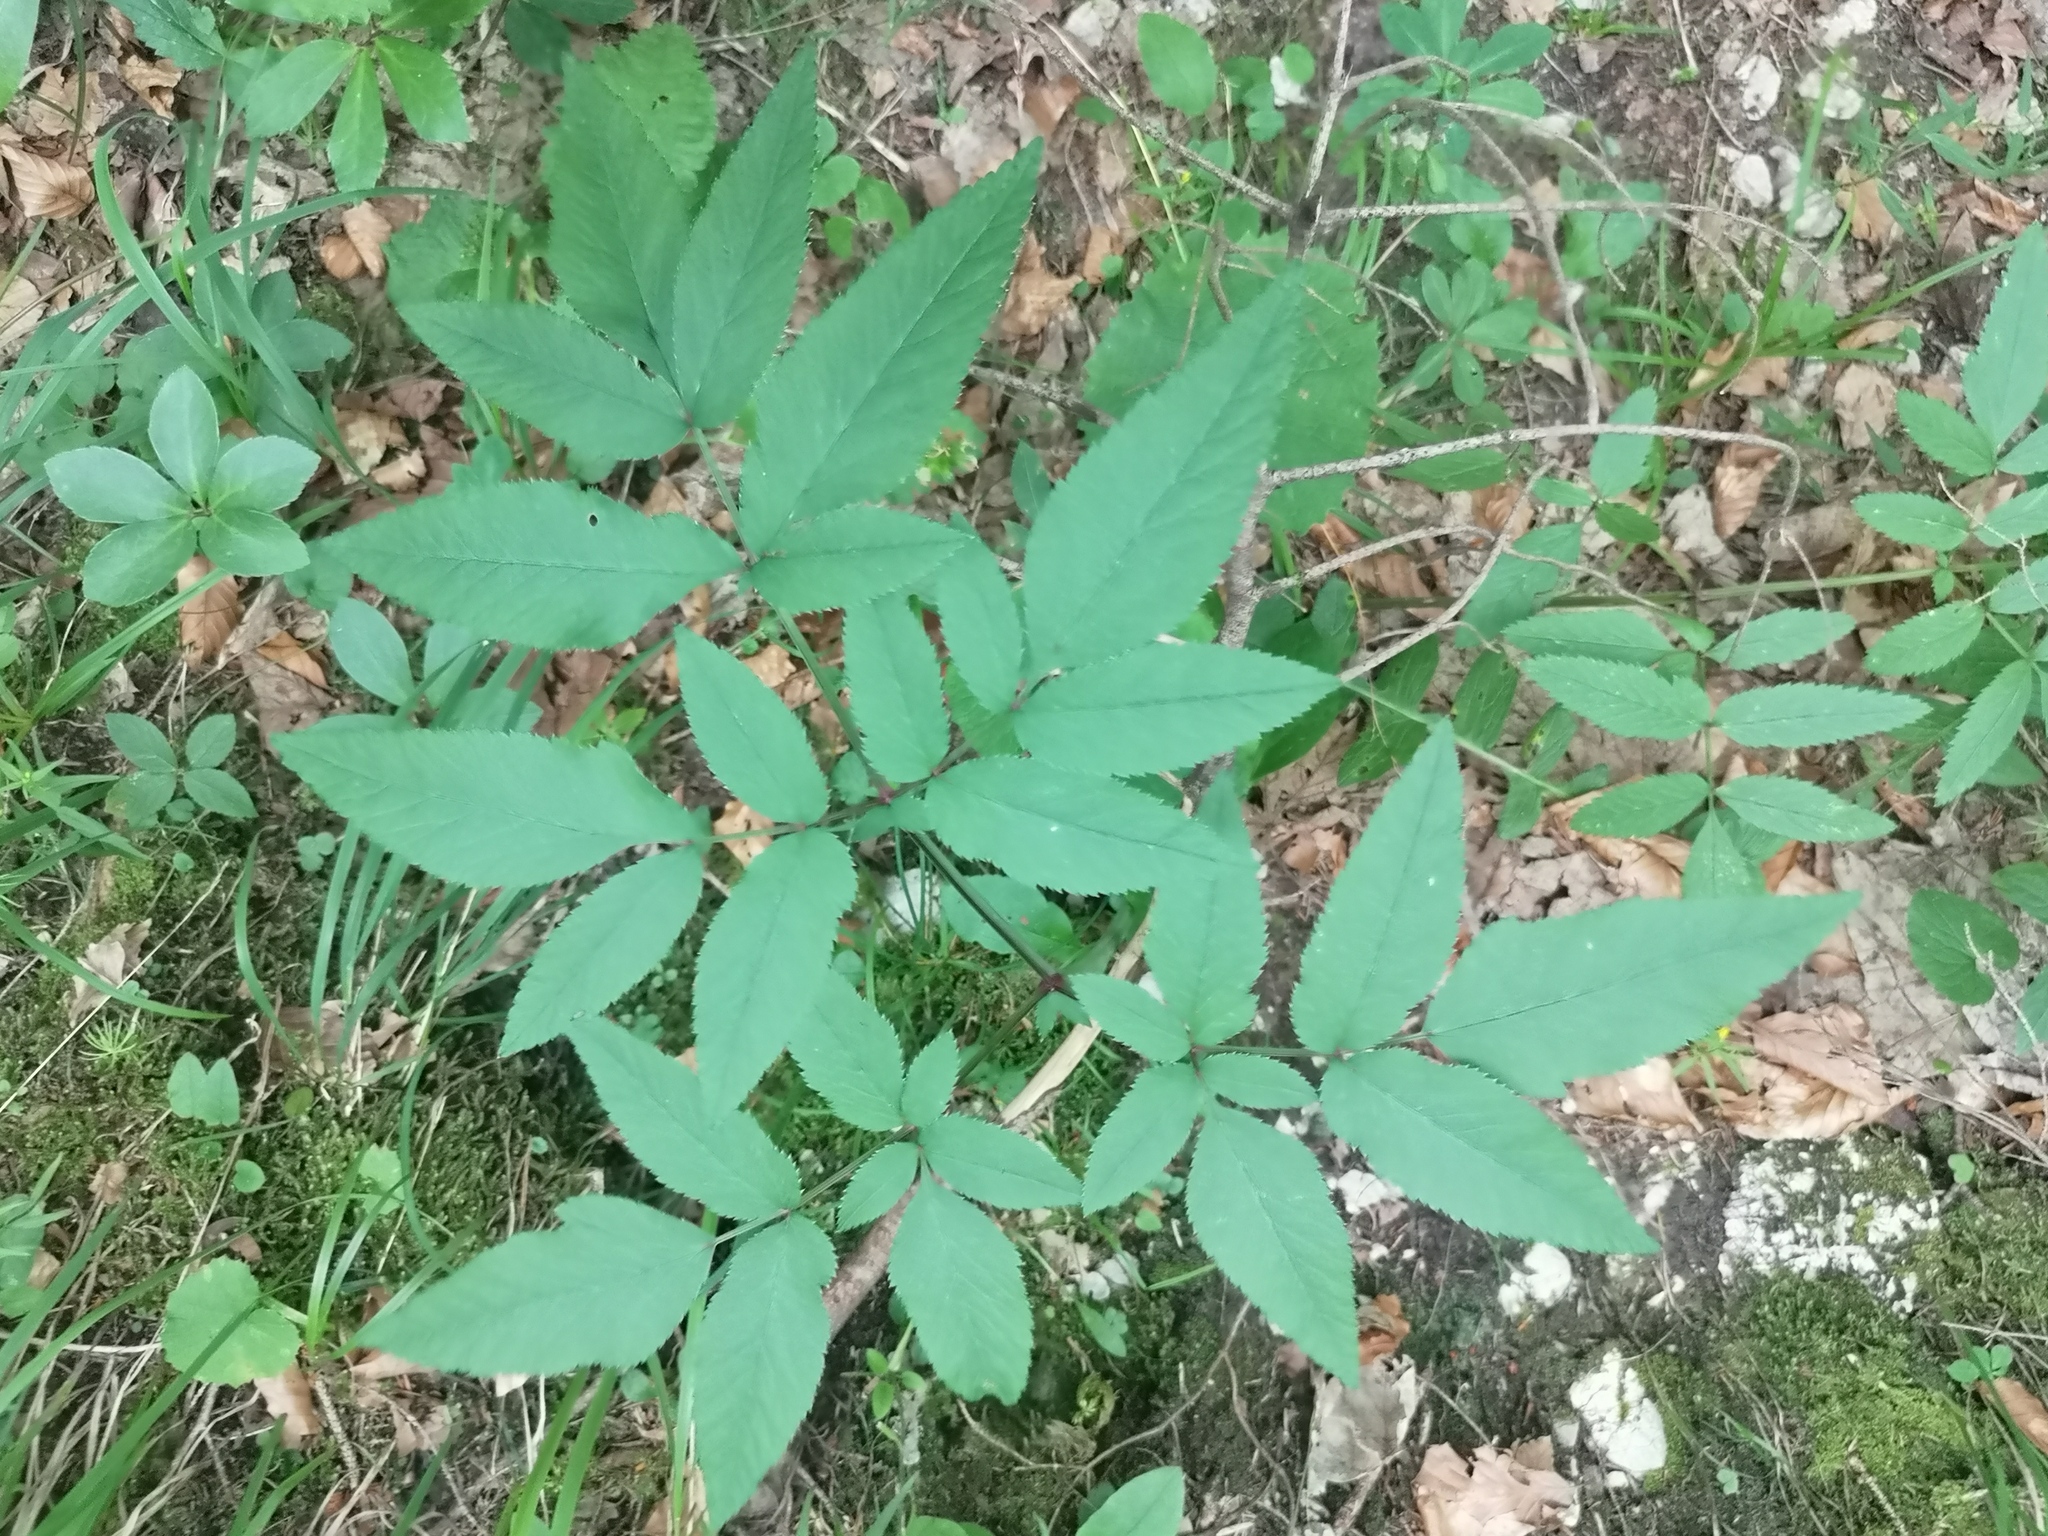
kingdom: Plantae
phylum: Tracheophyta
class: Magnoliopsida
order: Apiales
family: Apiaceae
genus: Angelica
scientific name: Angelica sylvestris
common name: Wild angelica
